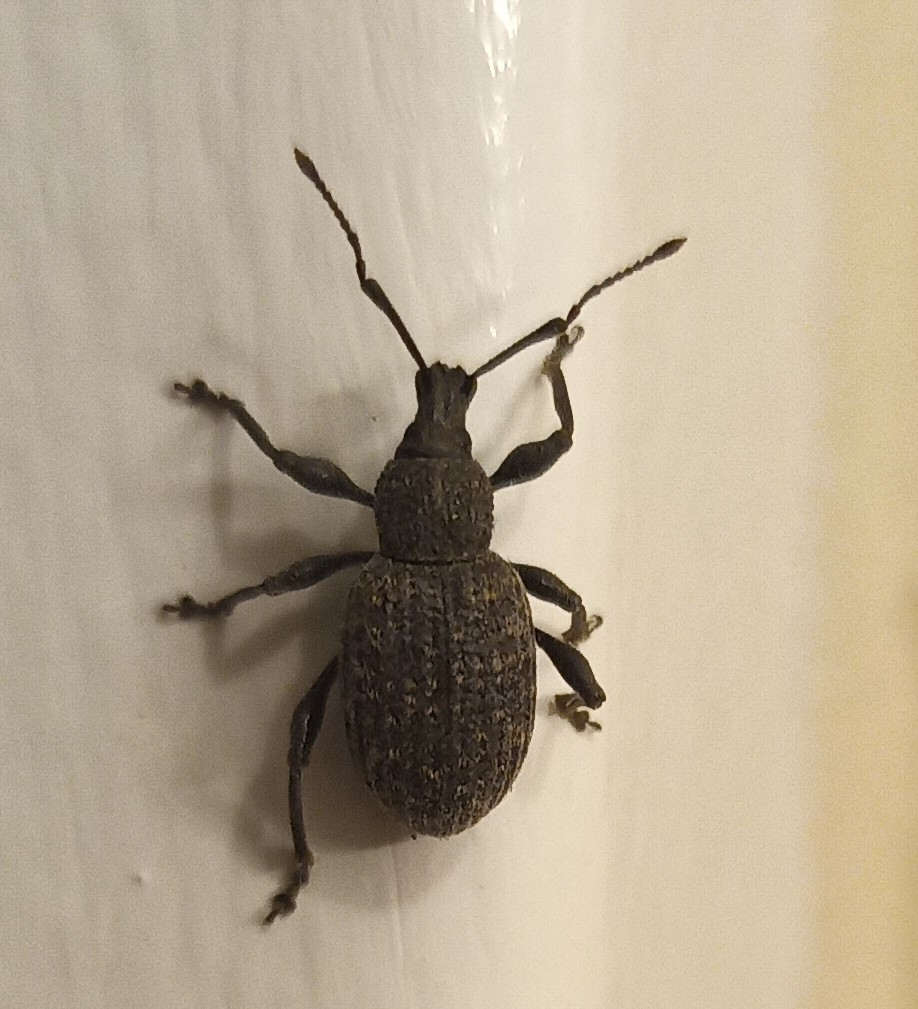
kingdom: Animalia
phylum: Arthropoda
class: Insecta
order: Coleoptera
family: Curculionidae
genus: Otiorhynchus
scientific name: Otiorhynchus sulcatus
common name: Black vine weevil
